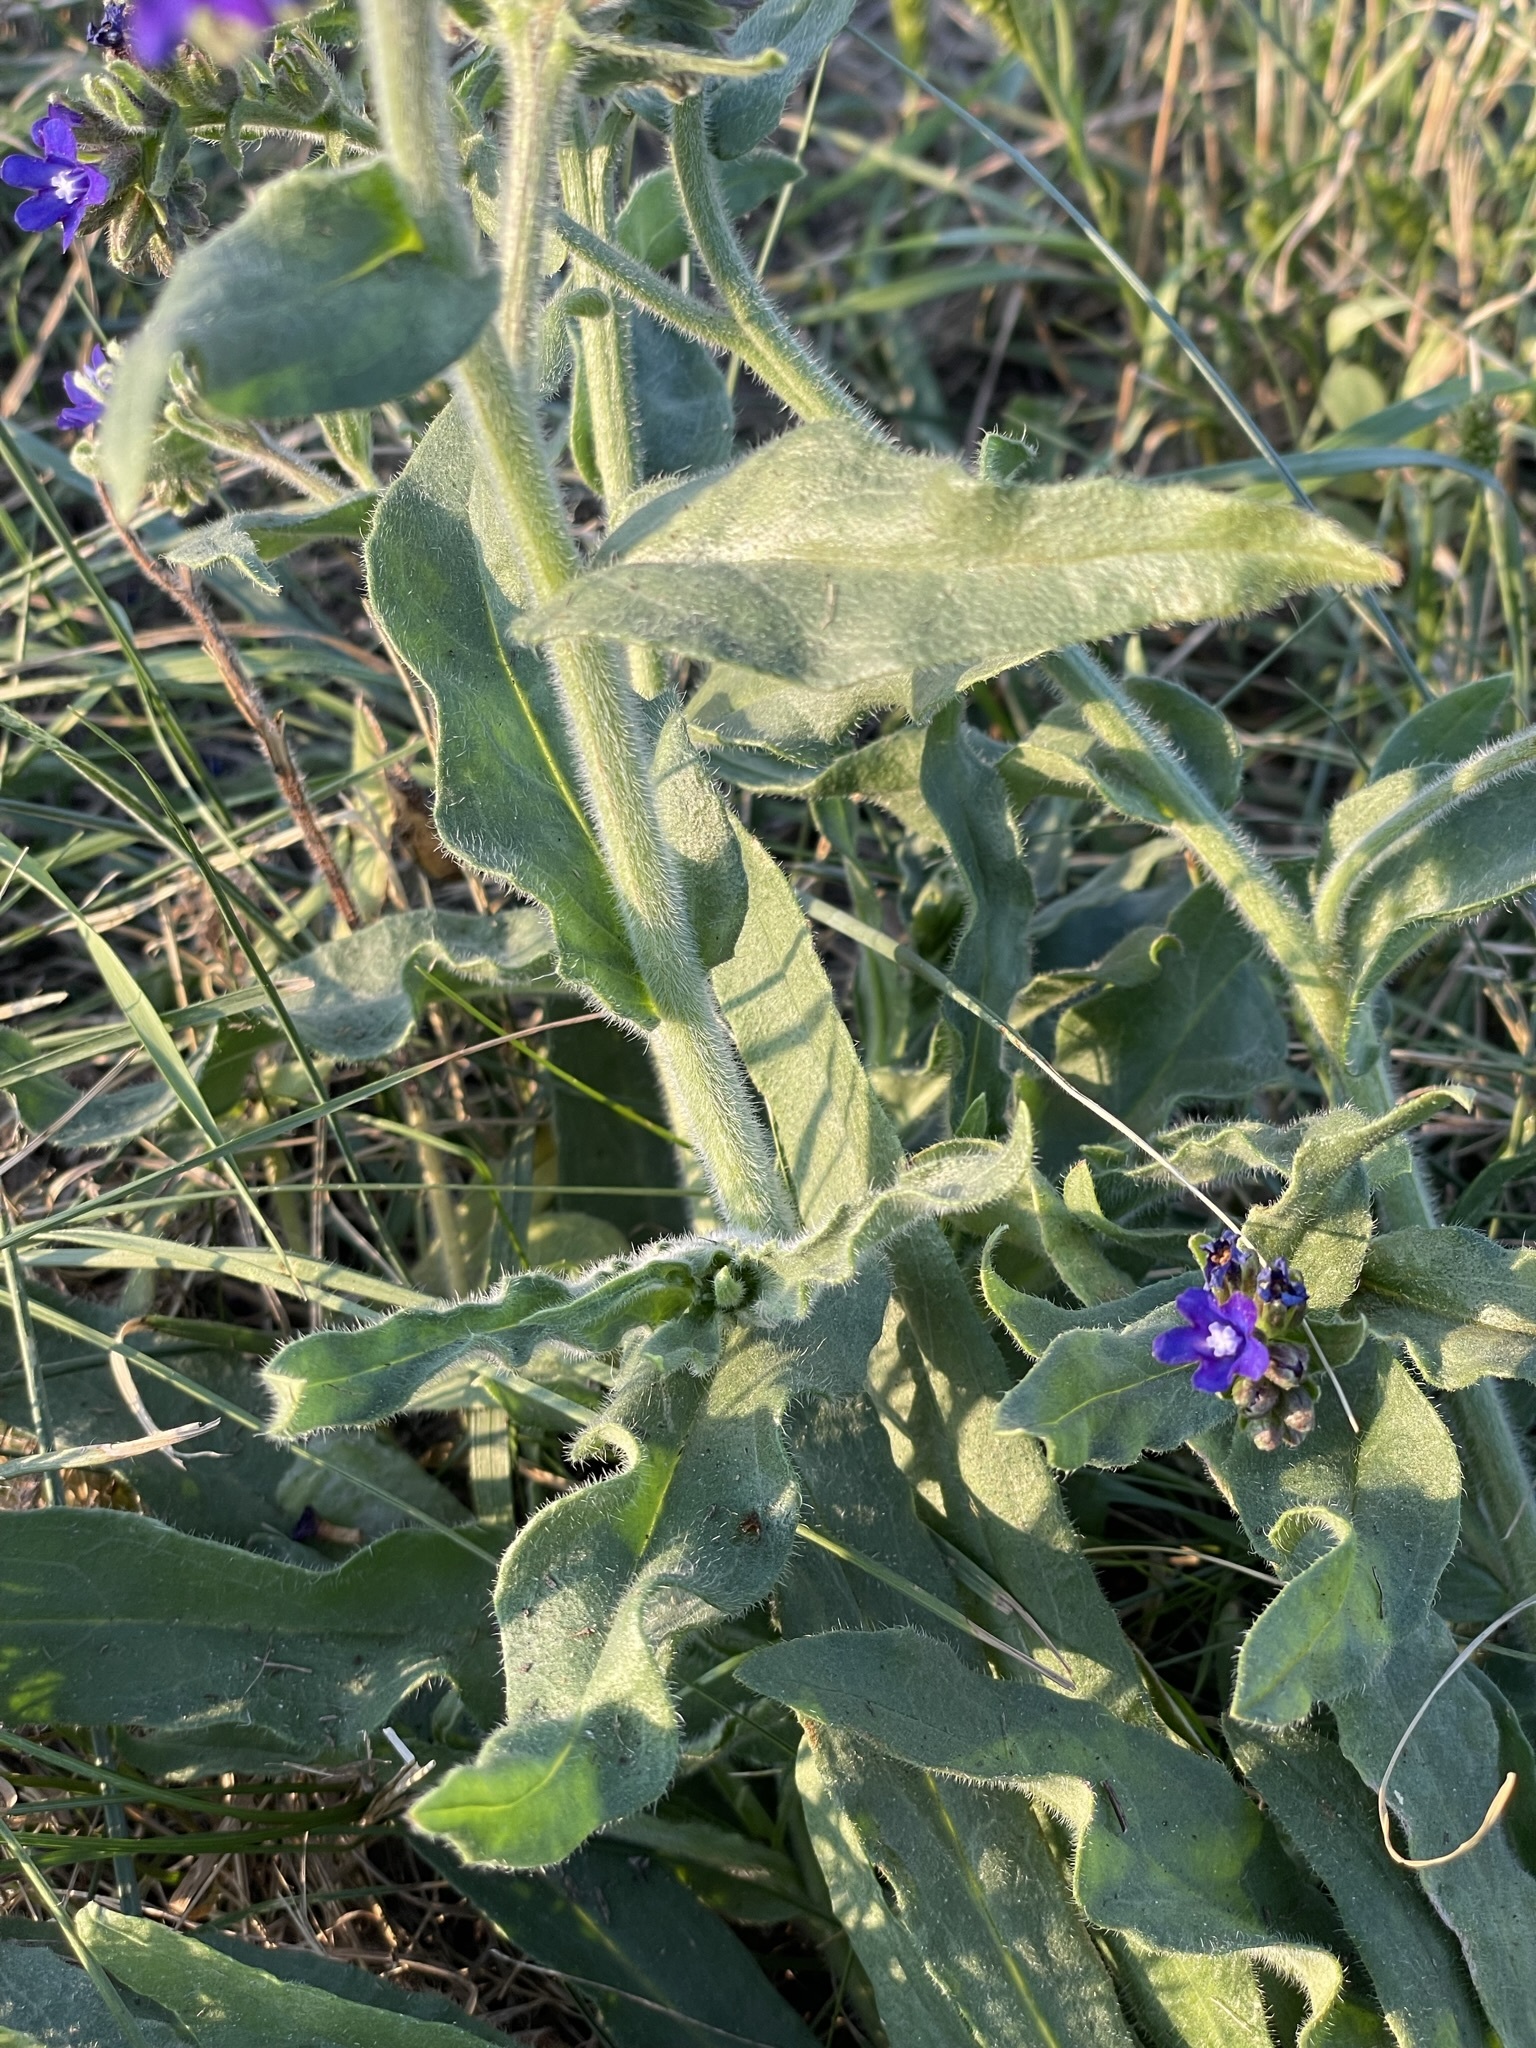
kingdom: Plantae
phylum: Tracheophyta
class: Magnoliopsida
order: Boraginales
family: Boraginaceae
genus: Anchusa
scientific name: Anchusa officinalis
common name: Alkanet
